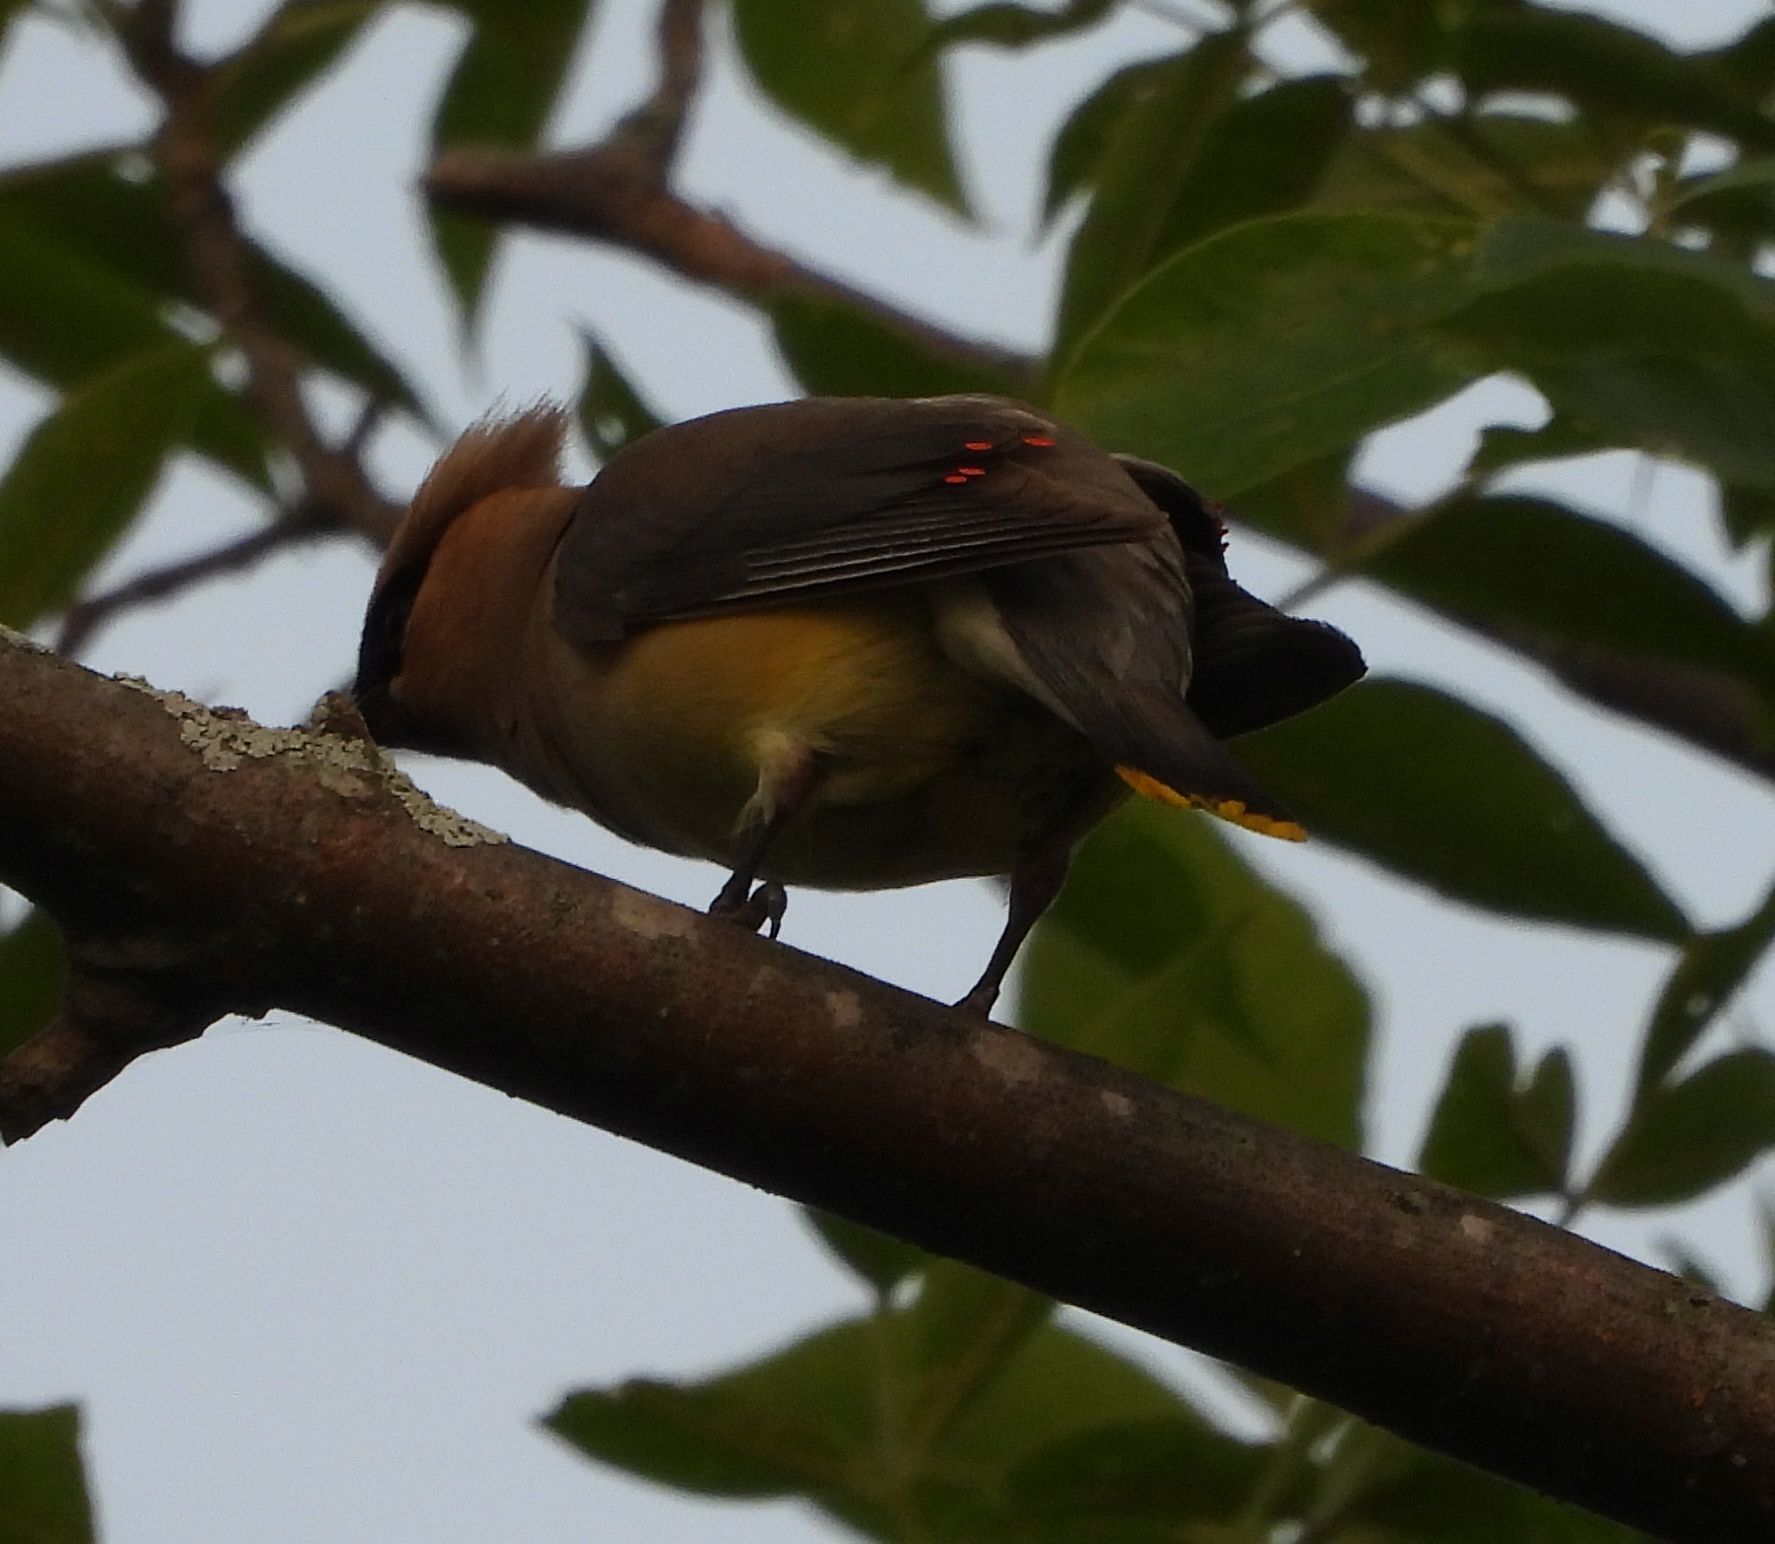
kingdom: Animalia
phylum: Chordata
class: Aves
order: Passeriformes
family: Bombycillidae
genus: Bombycilla
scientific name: Bombycilla cedrorum
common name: Cedar waxwing
